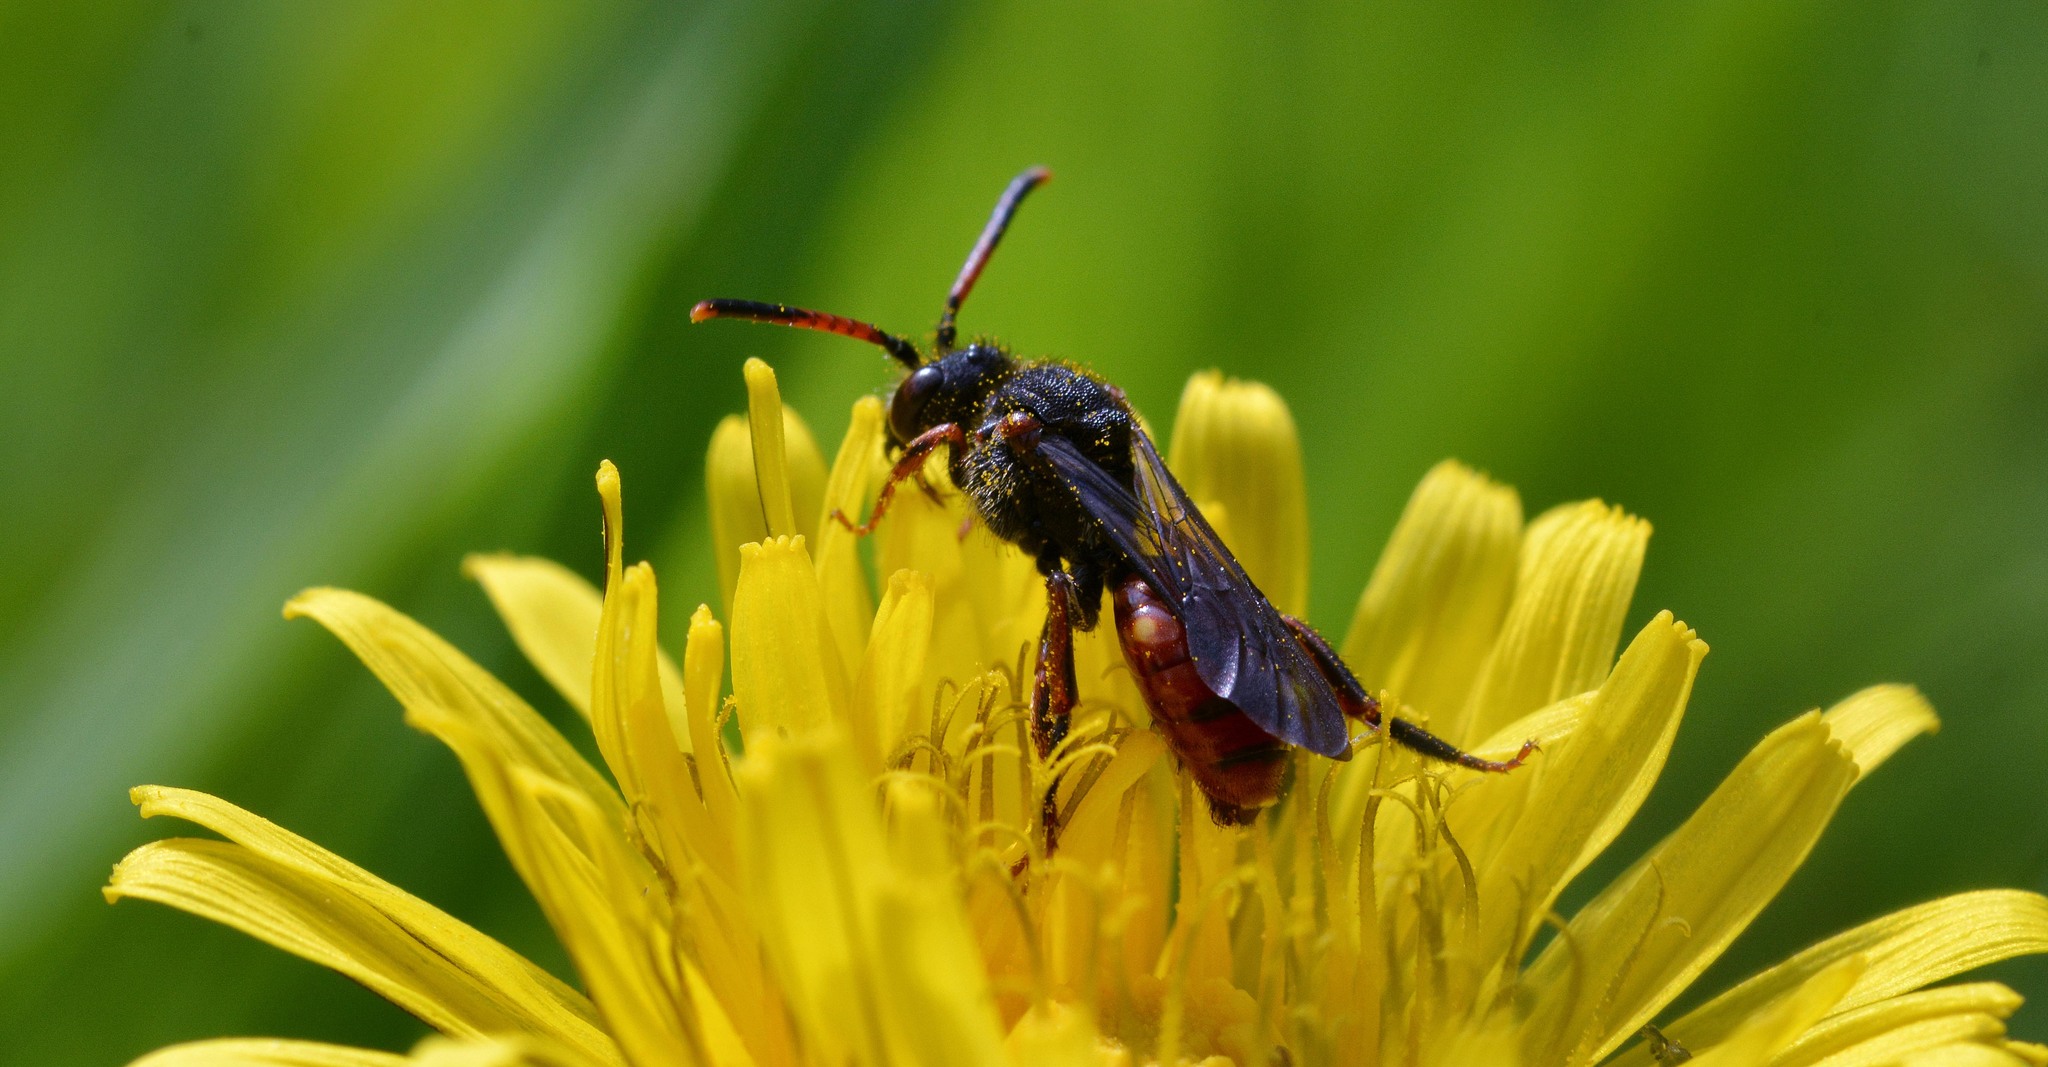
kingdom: Animalia
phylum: Arthropoda
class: Insecta
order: Hymenoptera
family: Apidae
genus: Nomada
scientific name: Nomada fabriciana
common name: Fabricius' nomad bee
